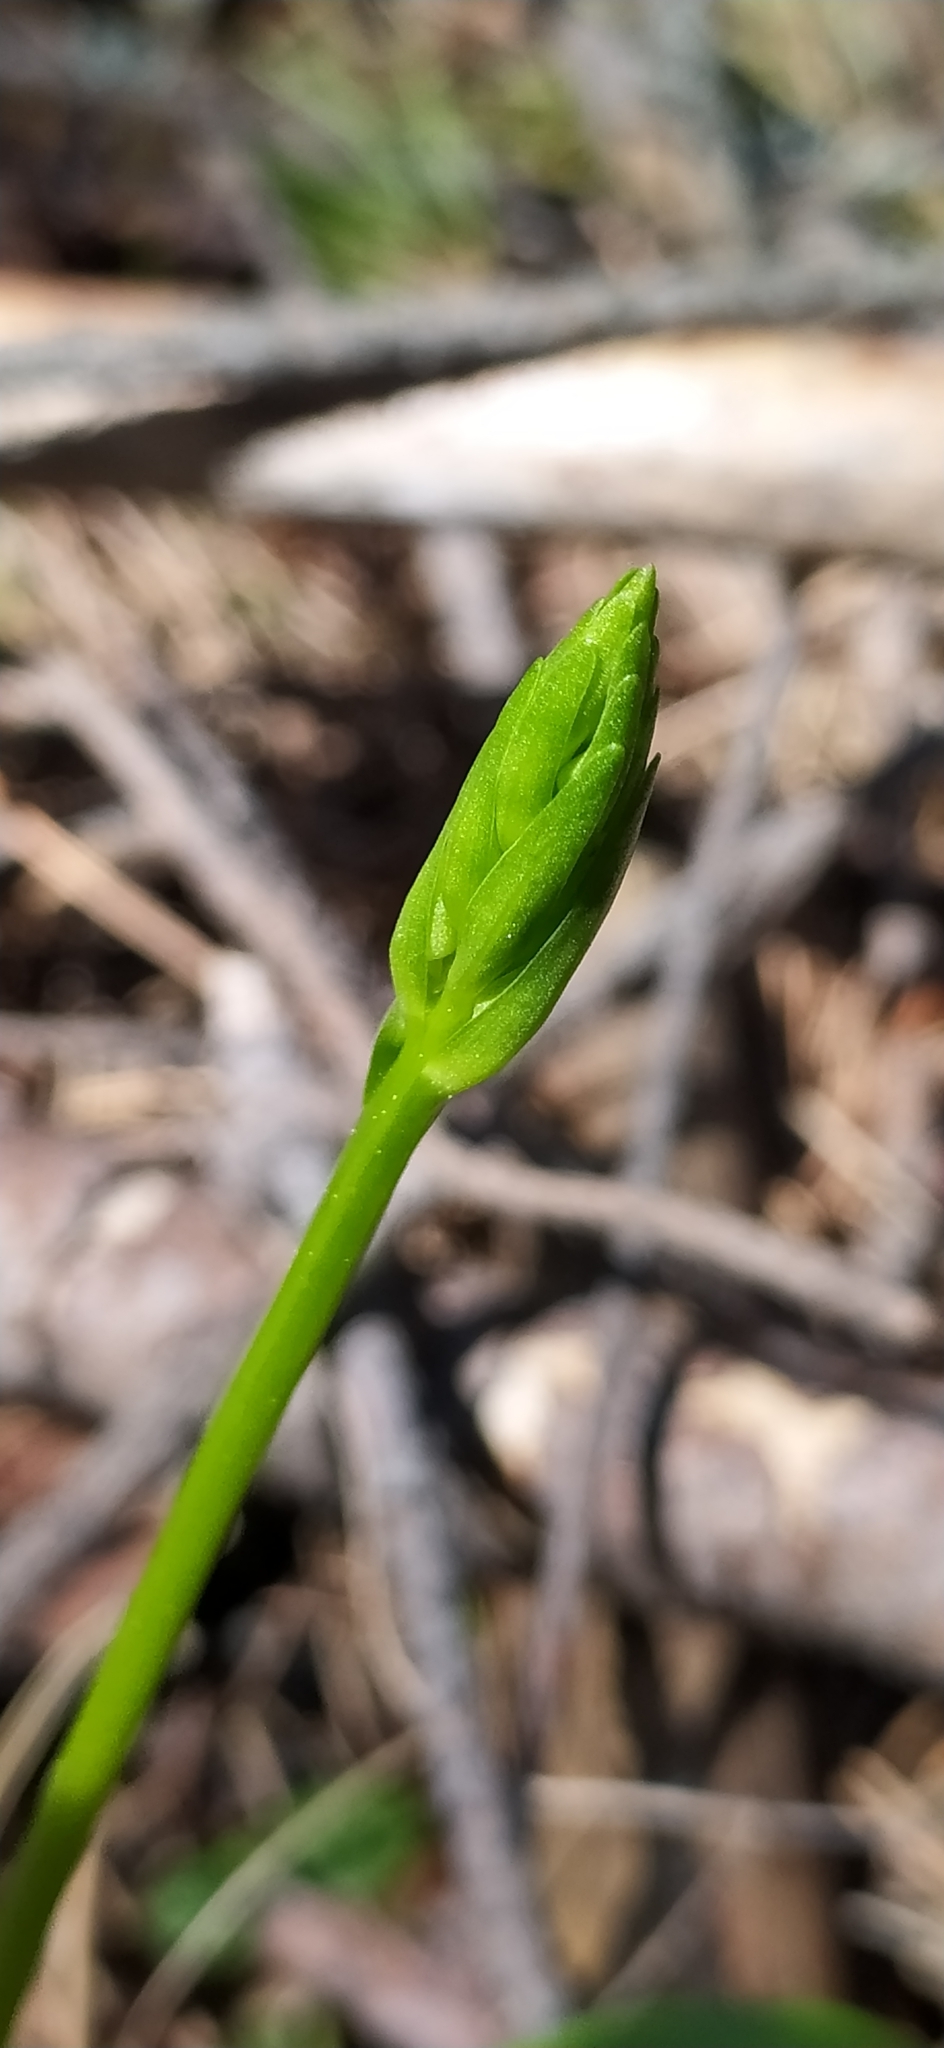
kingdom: Plantae
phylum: Tracheophyta
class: Liliopsida
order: Asparagales
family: Orchidaceae
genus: Platanthera
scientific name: Platanthera bifolia
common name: Lesser butterfly-orchid
